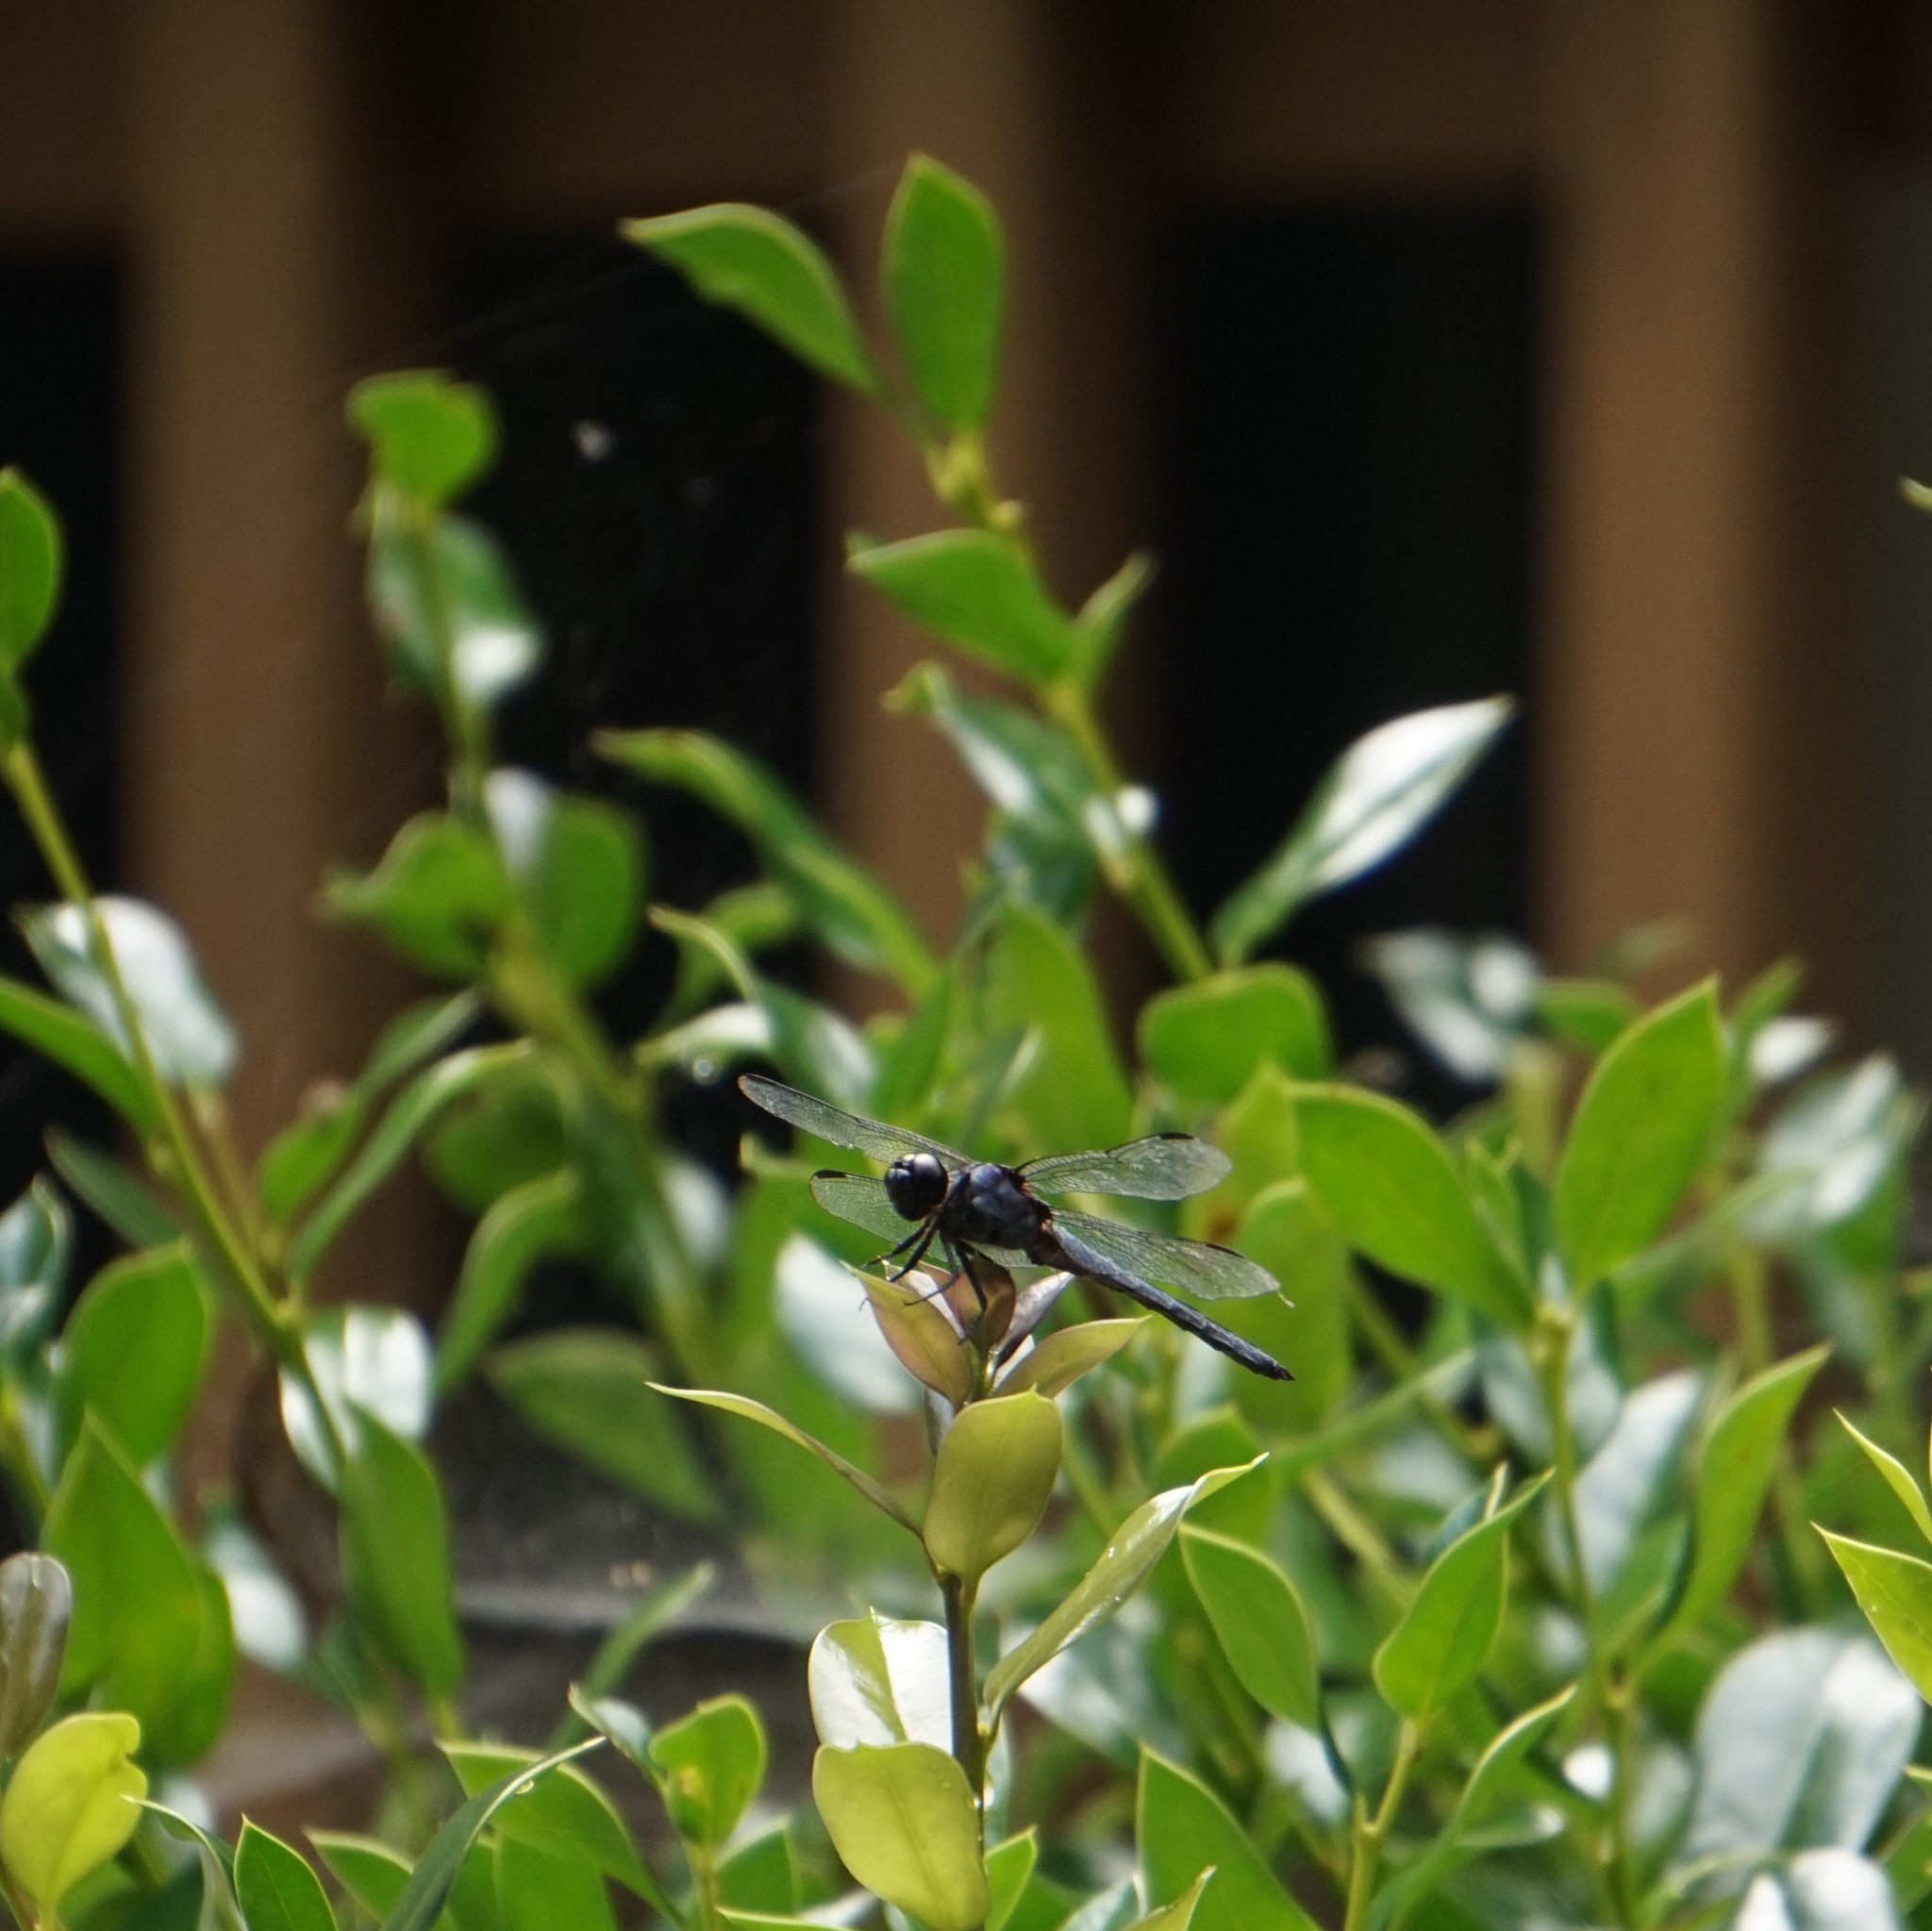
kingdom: Animalia
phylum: Arthropoda
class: Insecta
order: Odonata
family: Libellulidae
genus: Libellula
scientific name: Libellula incesta
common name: Slaty skimmer
